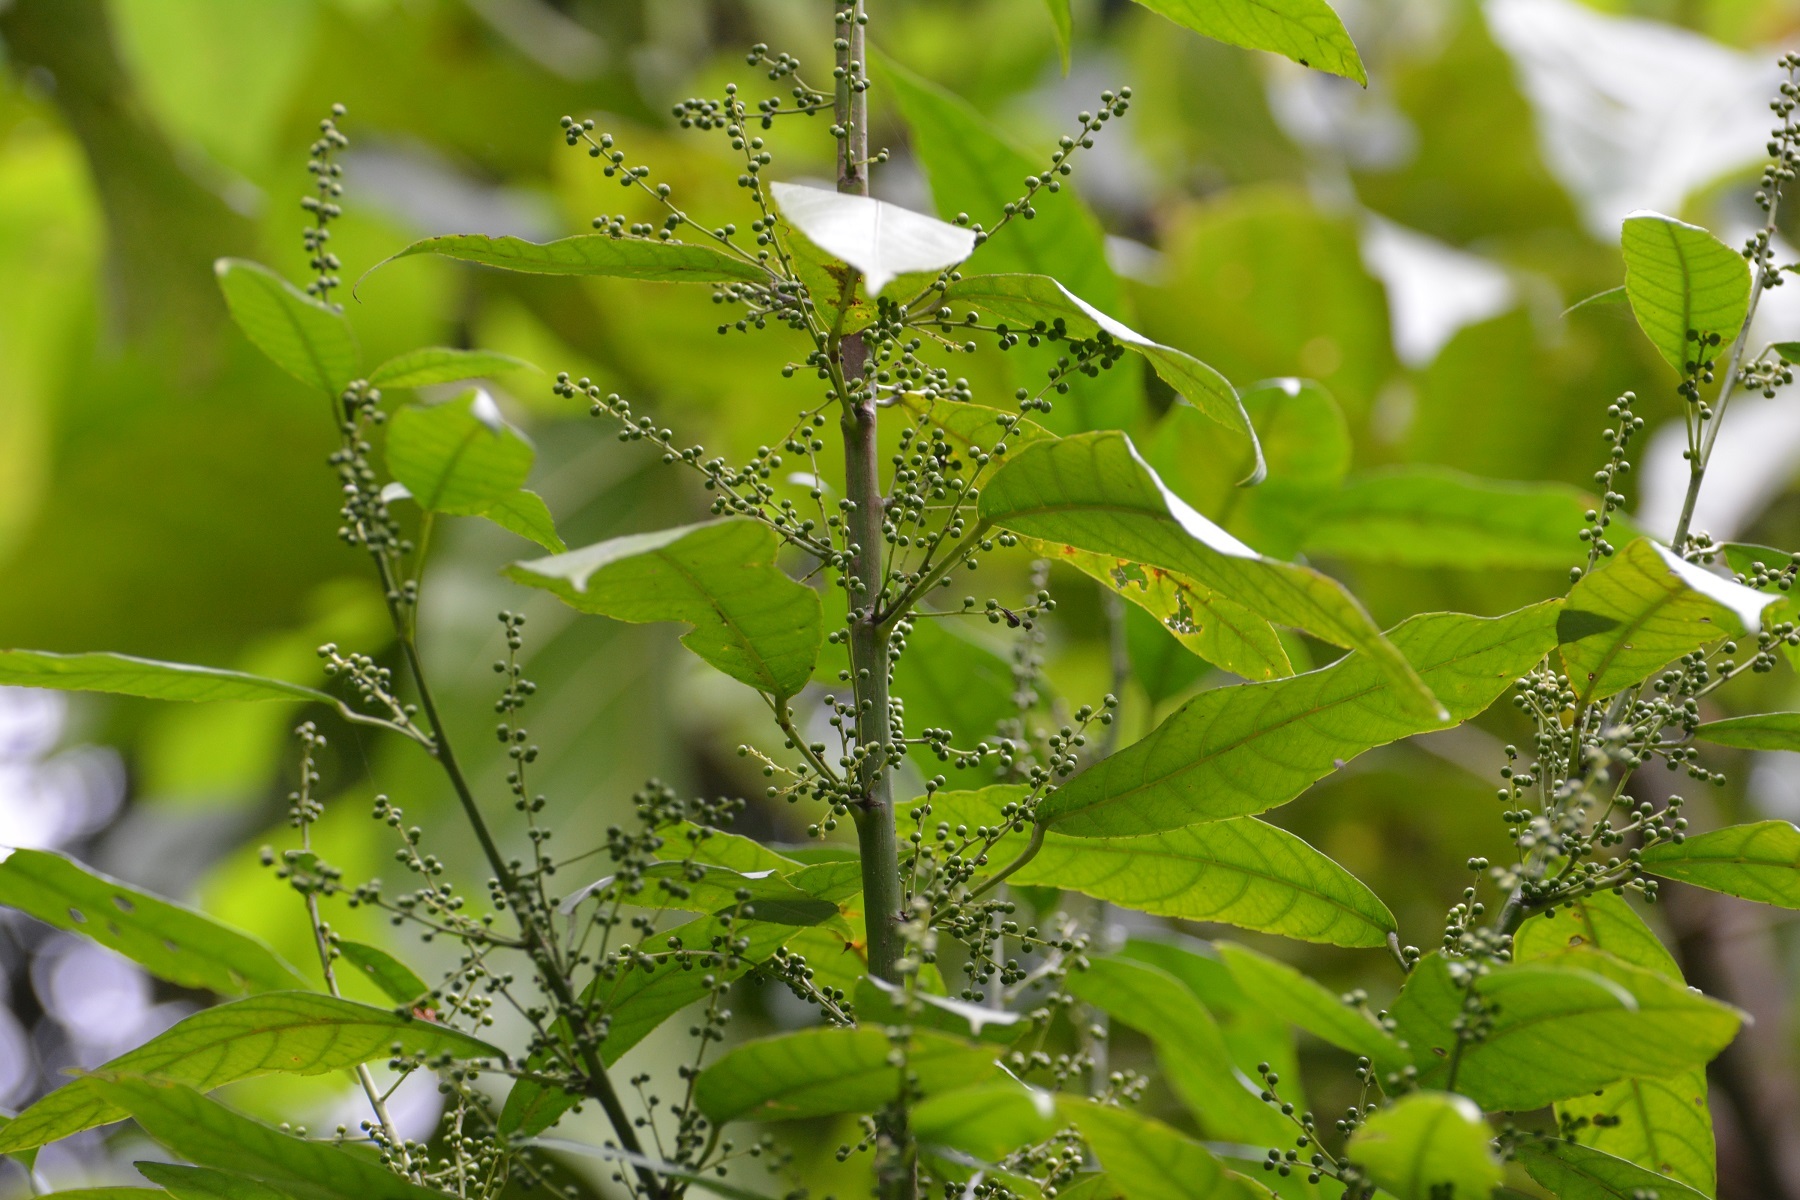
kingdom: Plantae
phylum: Tracheophyta
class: Magnoliopsida
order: Malpighiales
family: Euphorbiaceae
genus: Cleidion
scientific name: Cleidion castaneifolium
